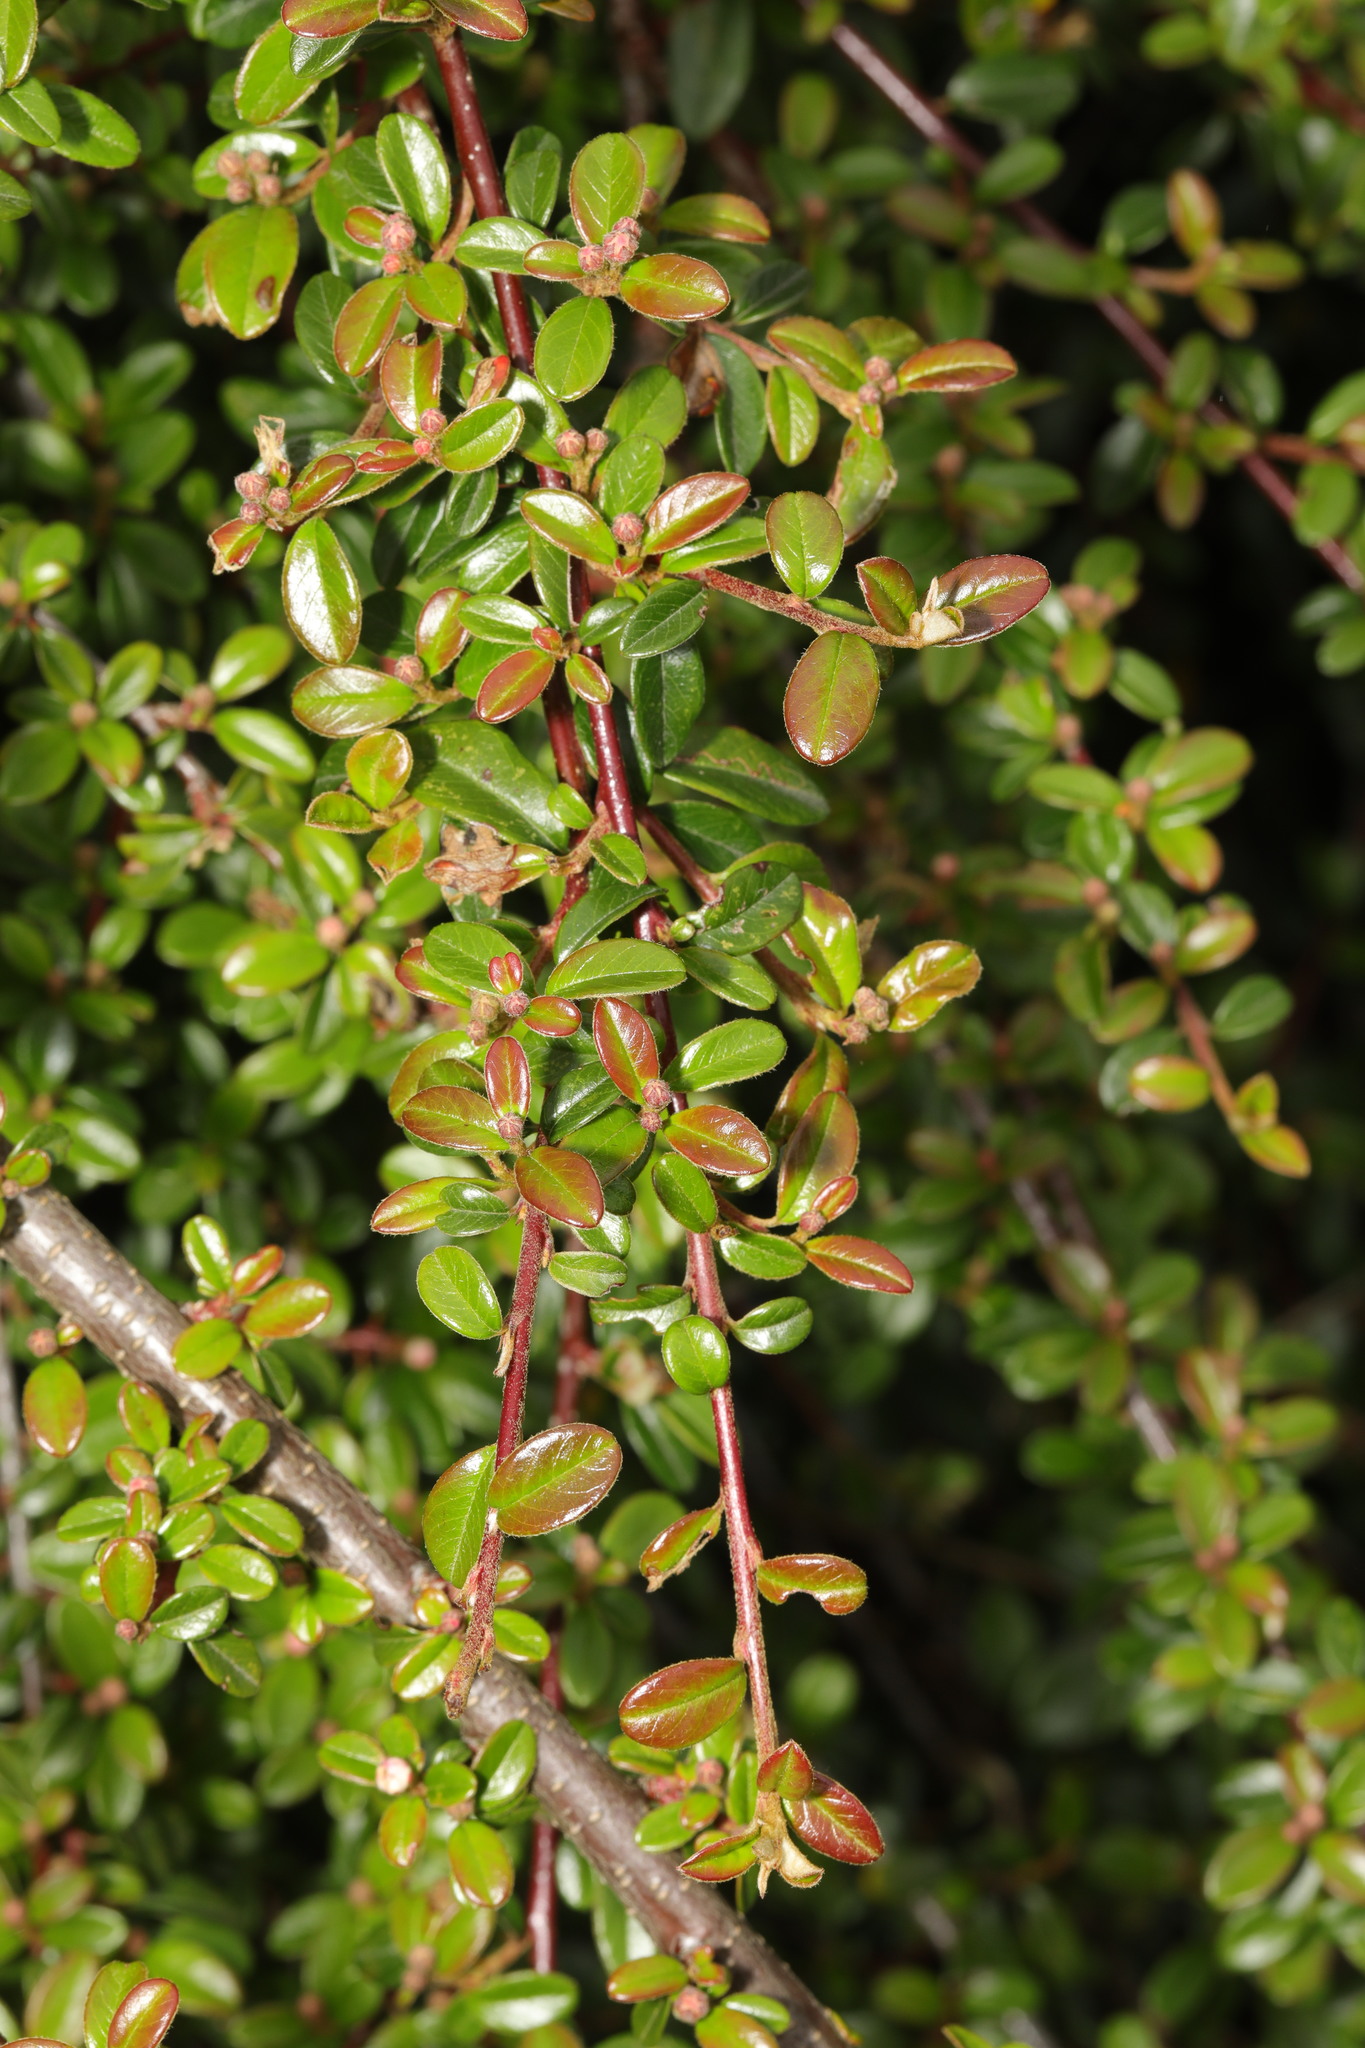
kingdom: Plantae
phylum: Tracheophyta
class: Magnoliopsida
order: Rosales
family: Rosaceae
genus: Cotoneaster
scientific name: Cotoneaster horizontalis
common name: Wall cotoneaster
